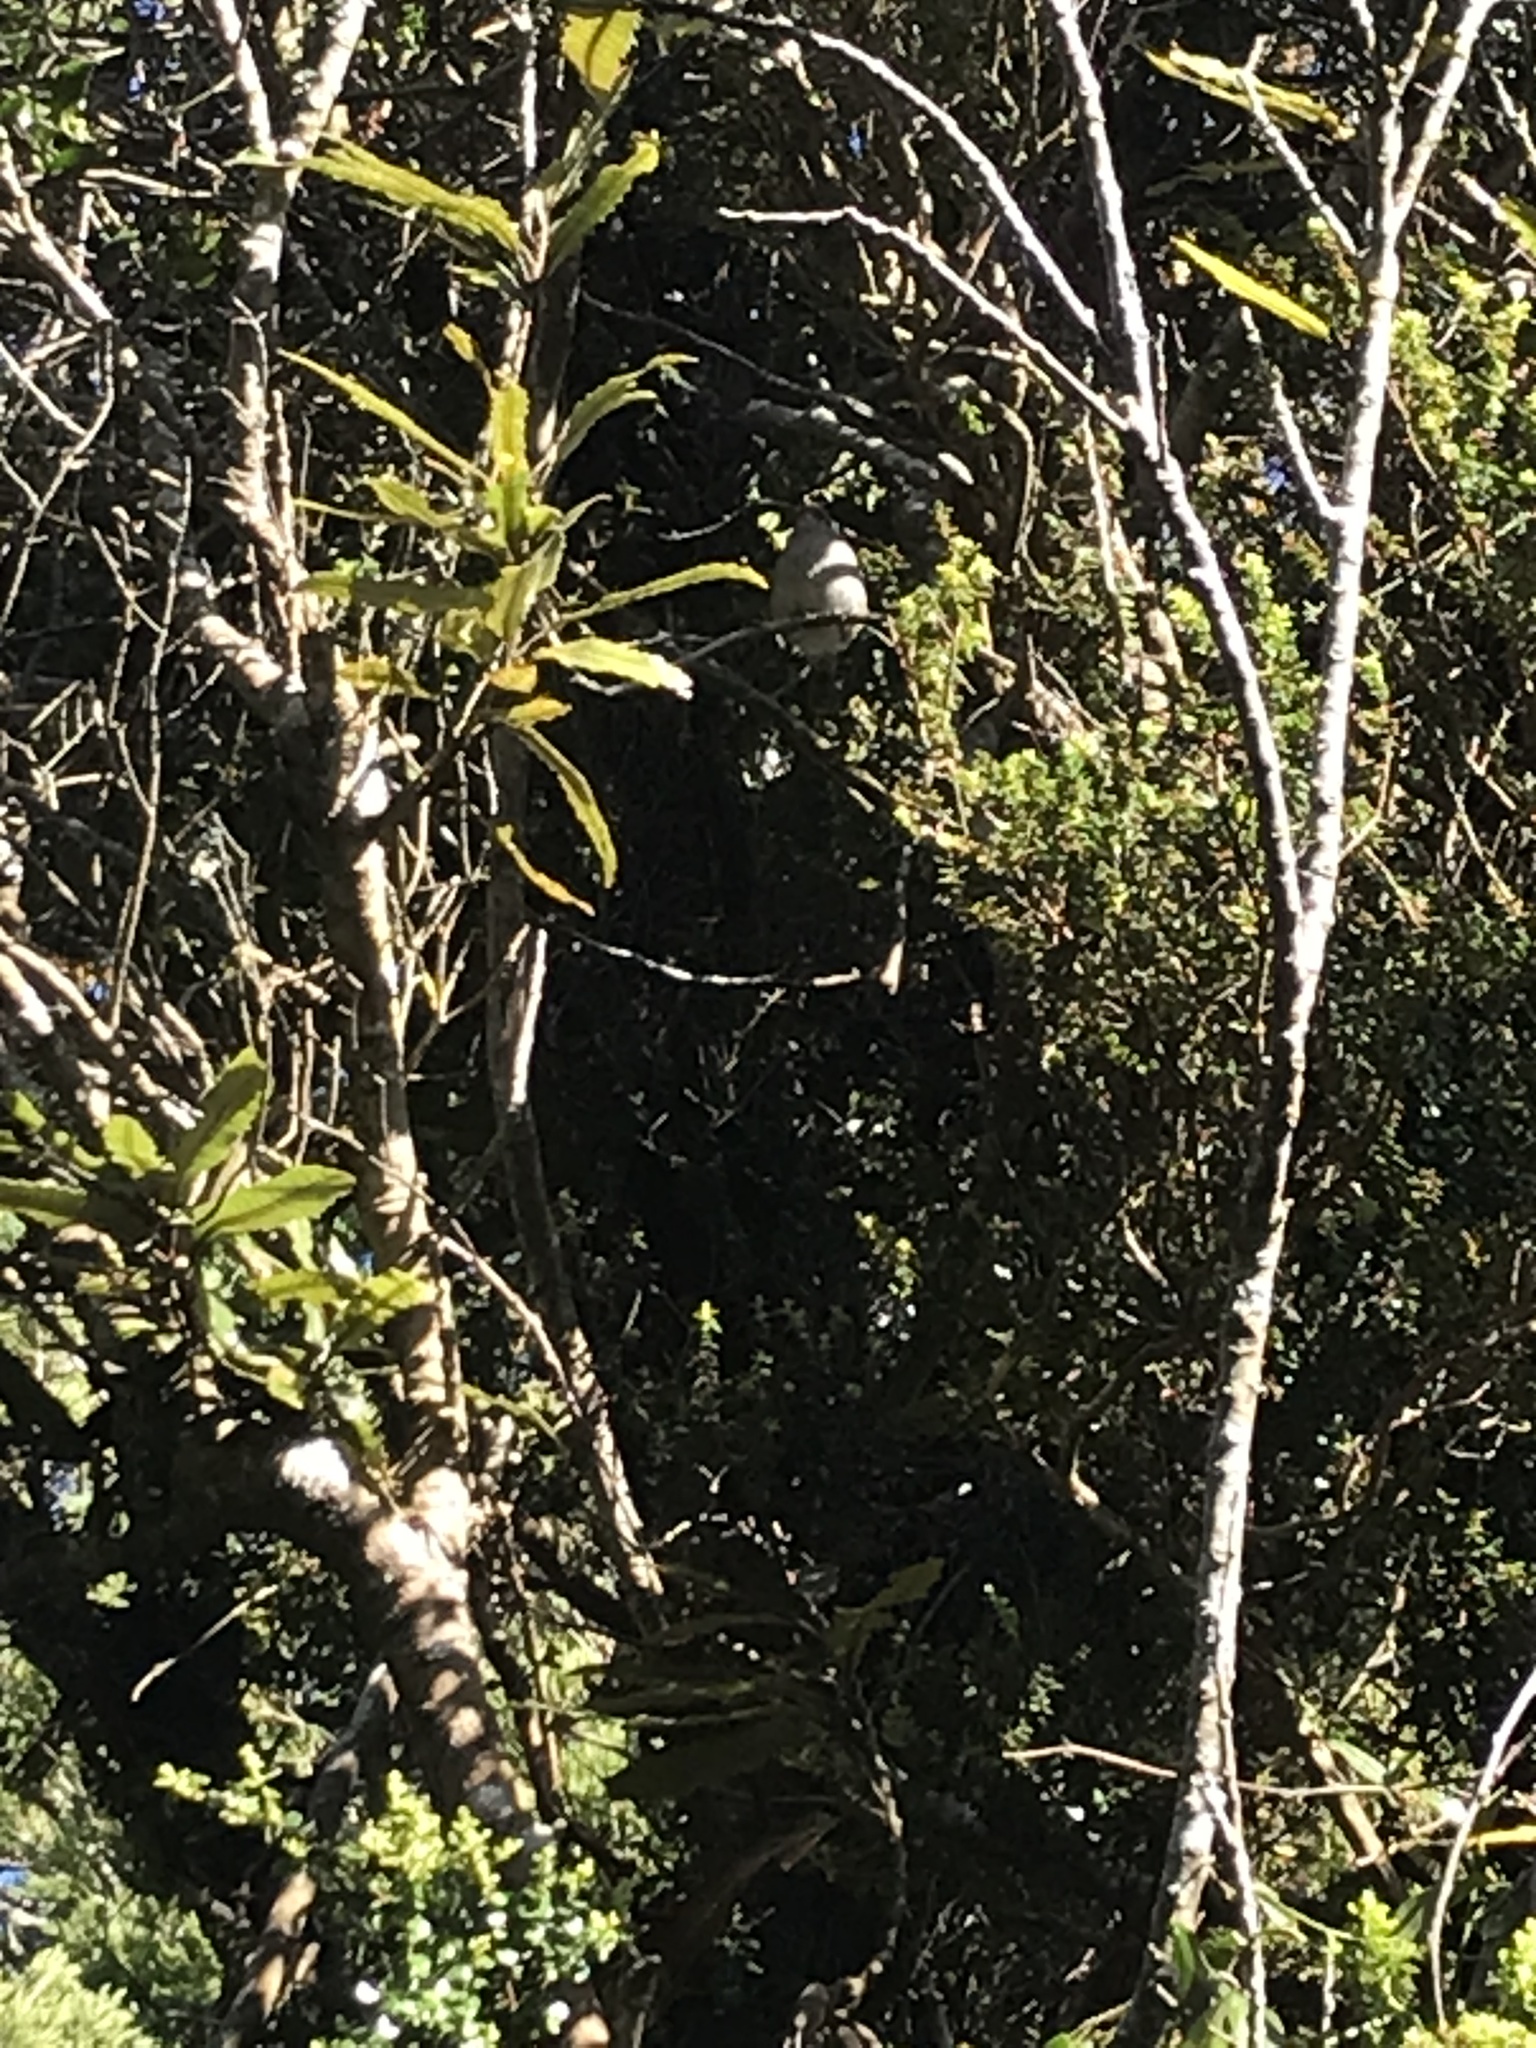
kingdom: Animalia
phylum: Chordata
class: Aves
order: Passeriformes
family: Acanthizidae
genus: Mohoua
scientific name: Mohoua albicilla
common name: Whitehead
